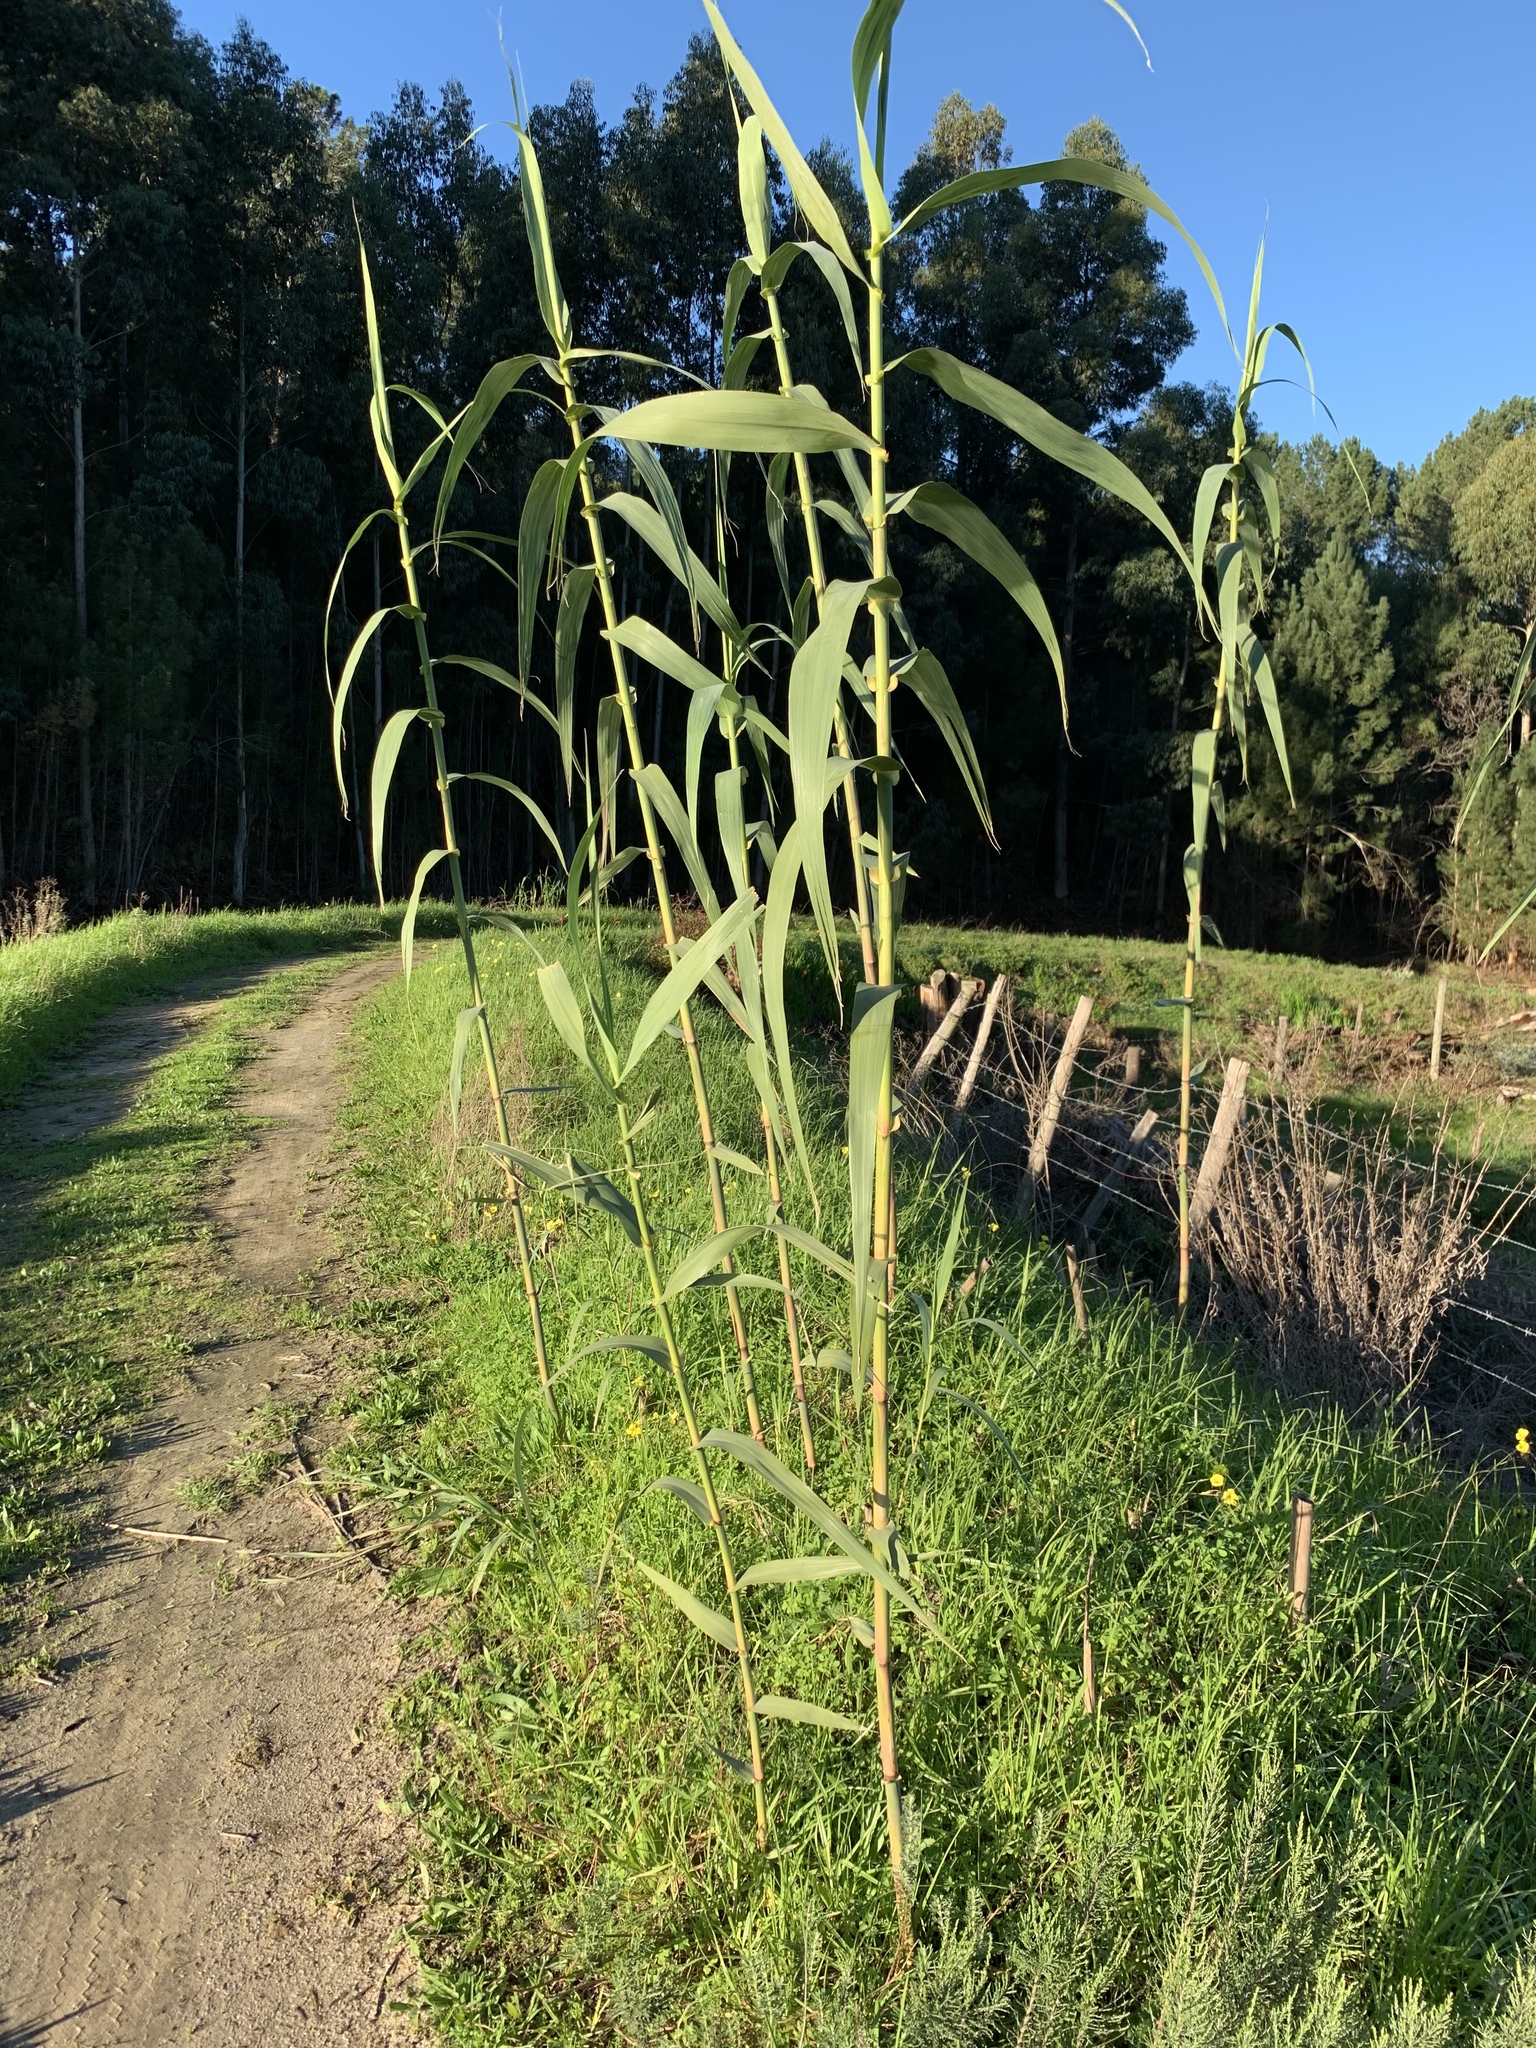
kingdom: Plantae
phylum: Tracheophyta
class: Liliopsida
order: Poales
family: Poaceae
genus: Arundo
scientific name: Arundo donax
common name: Giant reed
